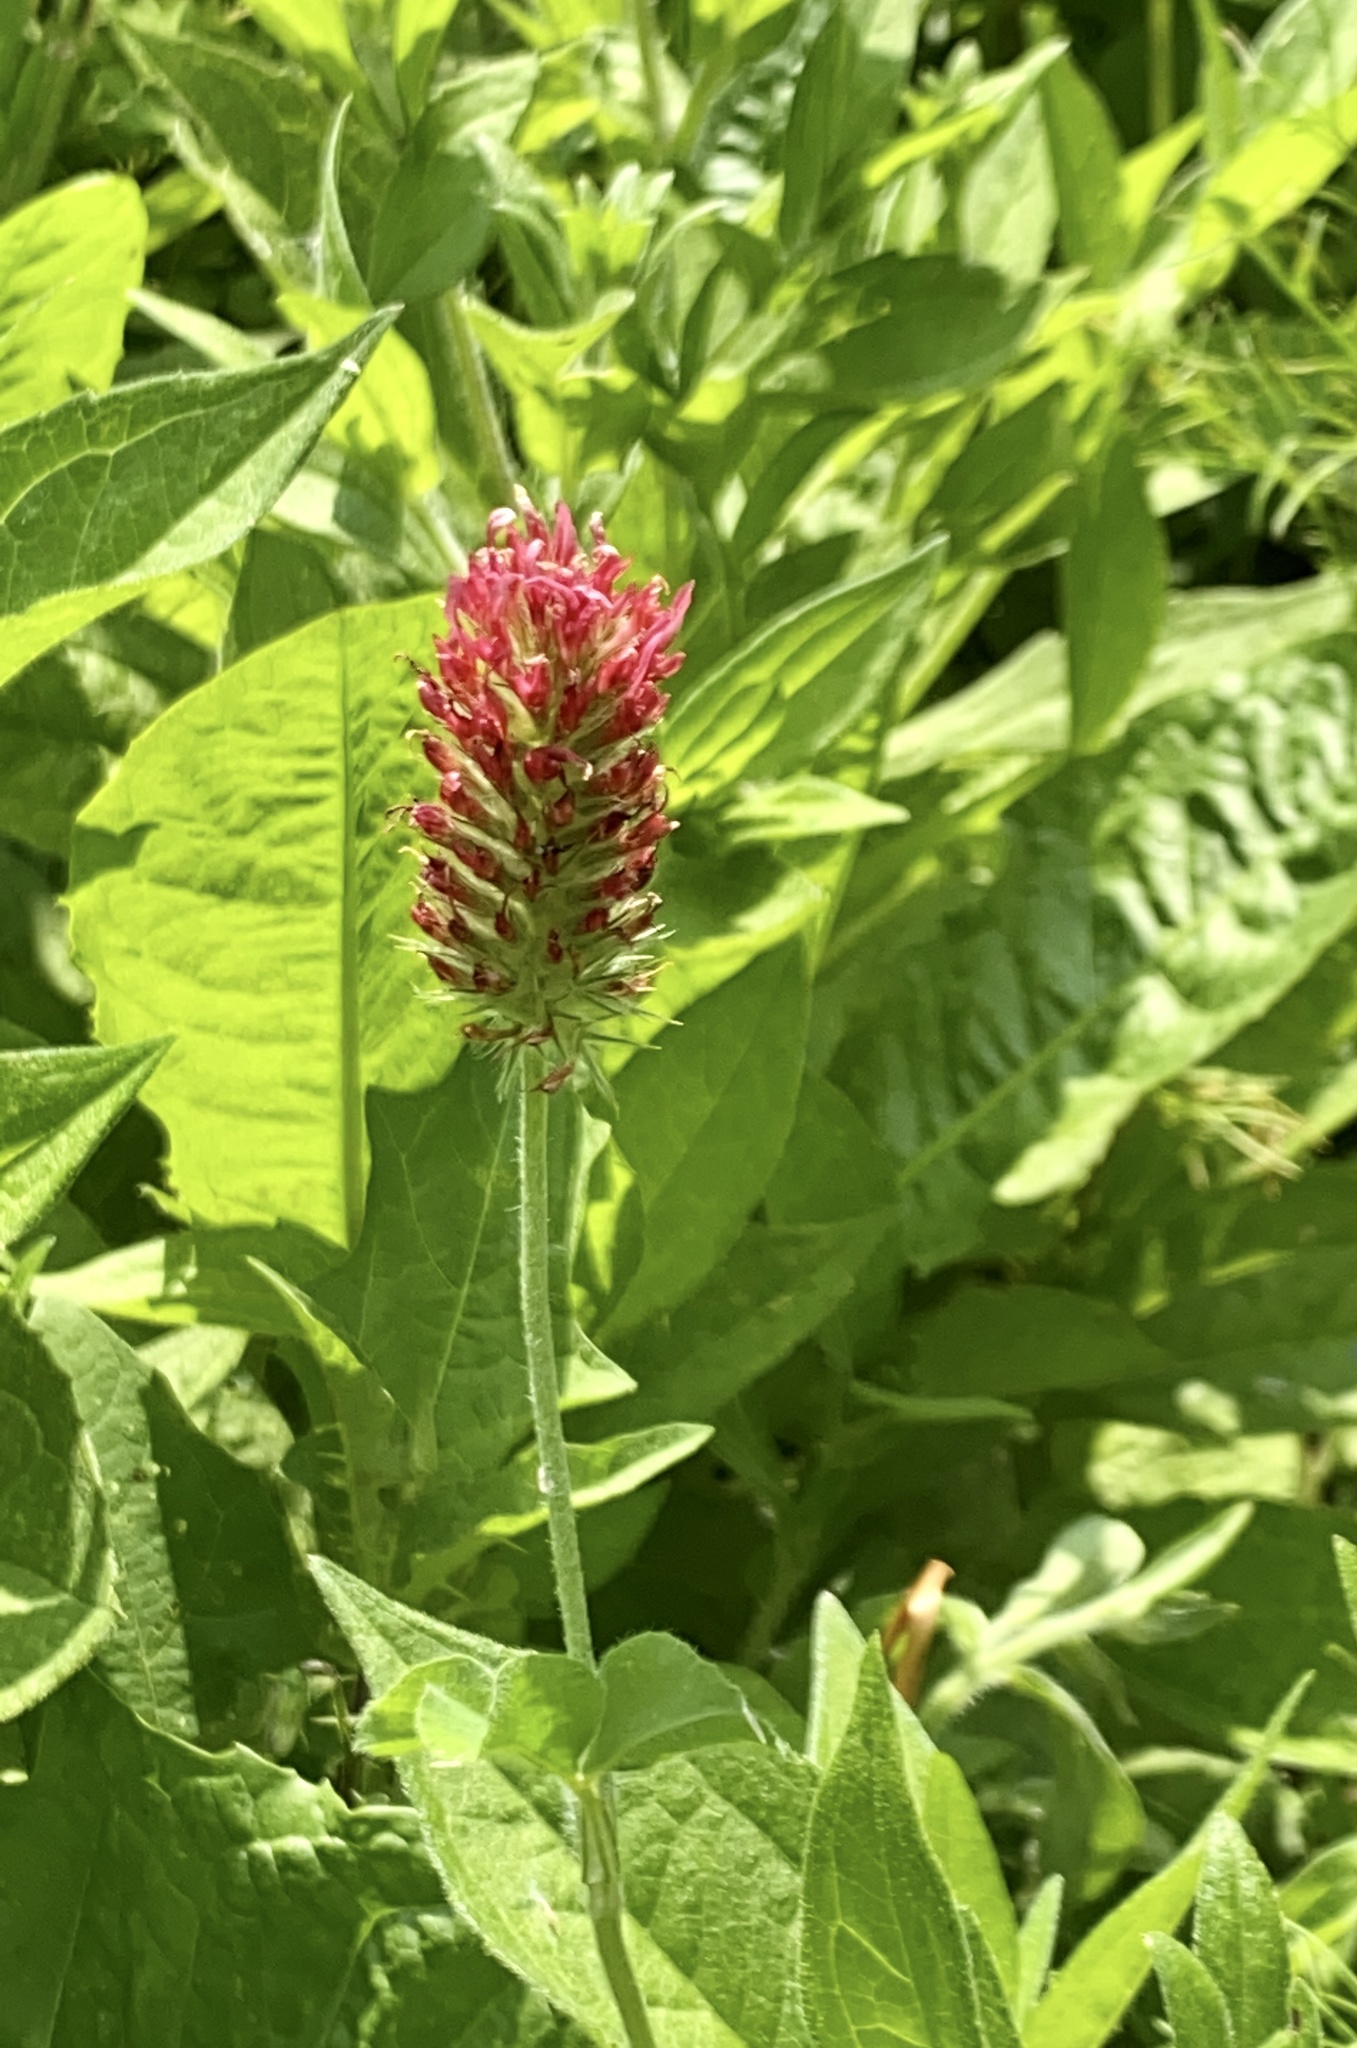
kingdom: Plantae
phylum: Tracheophyta
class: Magnoliopsida
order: Fabales
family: Fabaceae
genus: Trifolium
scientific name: Trifolium incarnatum
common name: Crimson clover
